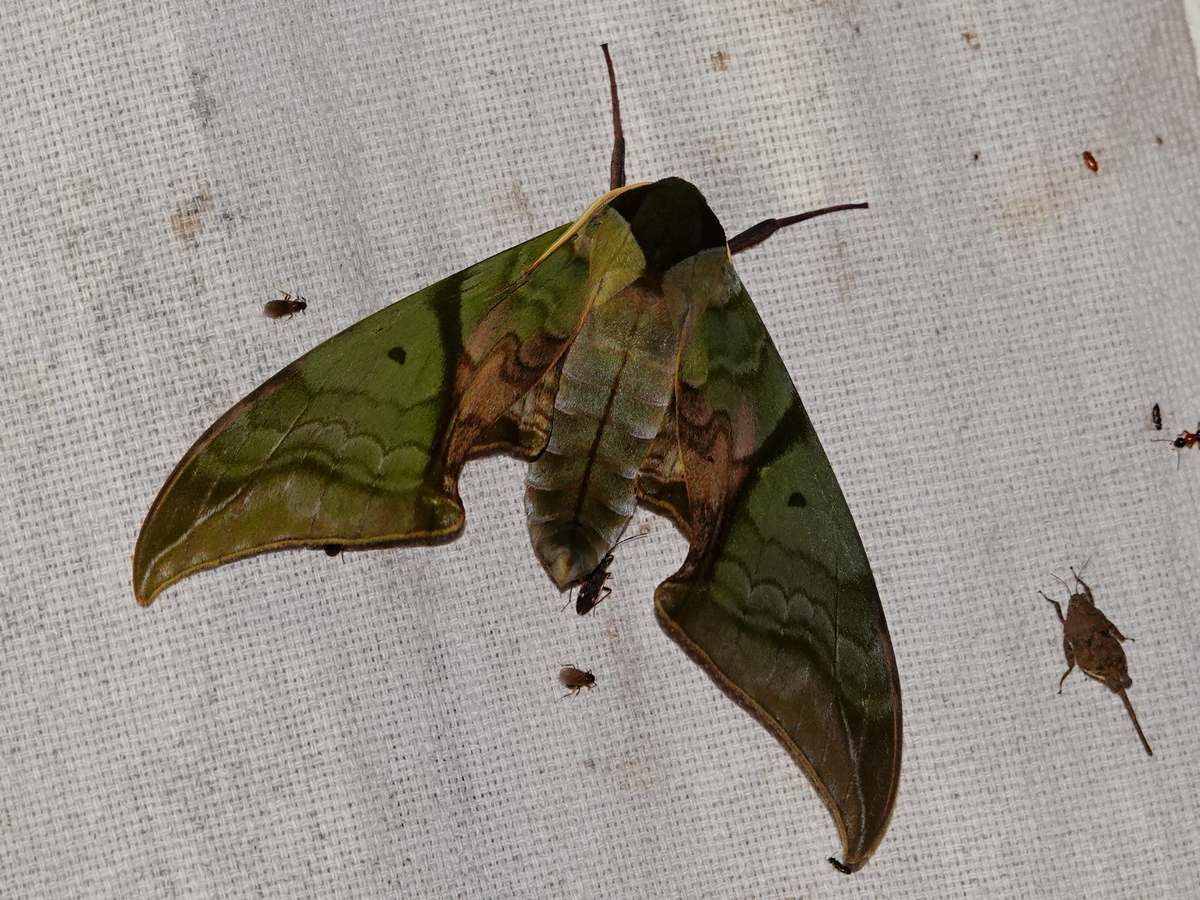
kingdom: Animalia
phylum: Arthropoda
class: Insecta
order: Lepidoptera
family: Sphingidae
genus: Callambulyx
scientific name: Callambulyx rubricosa
